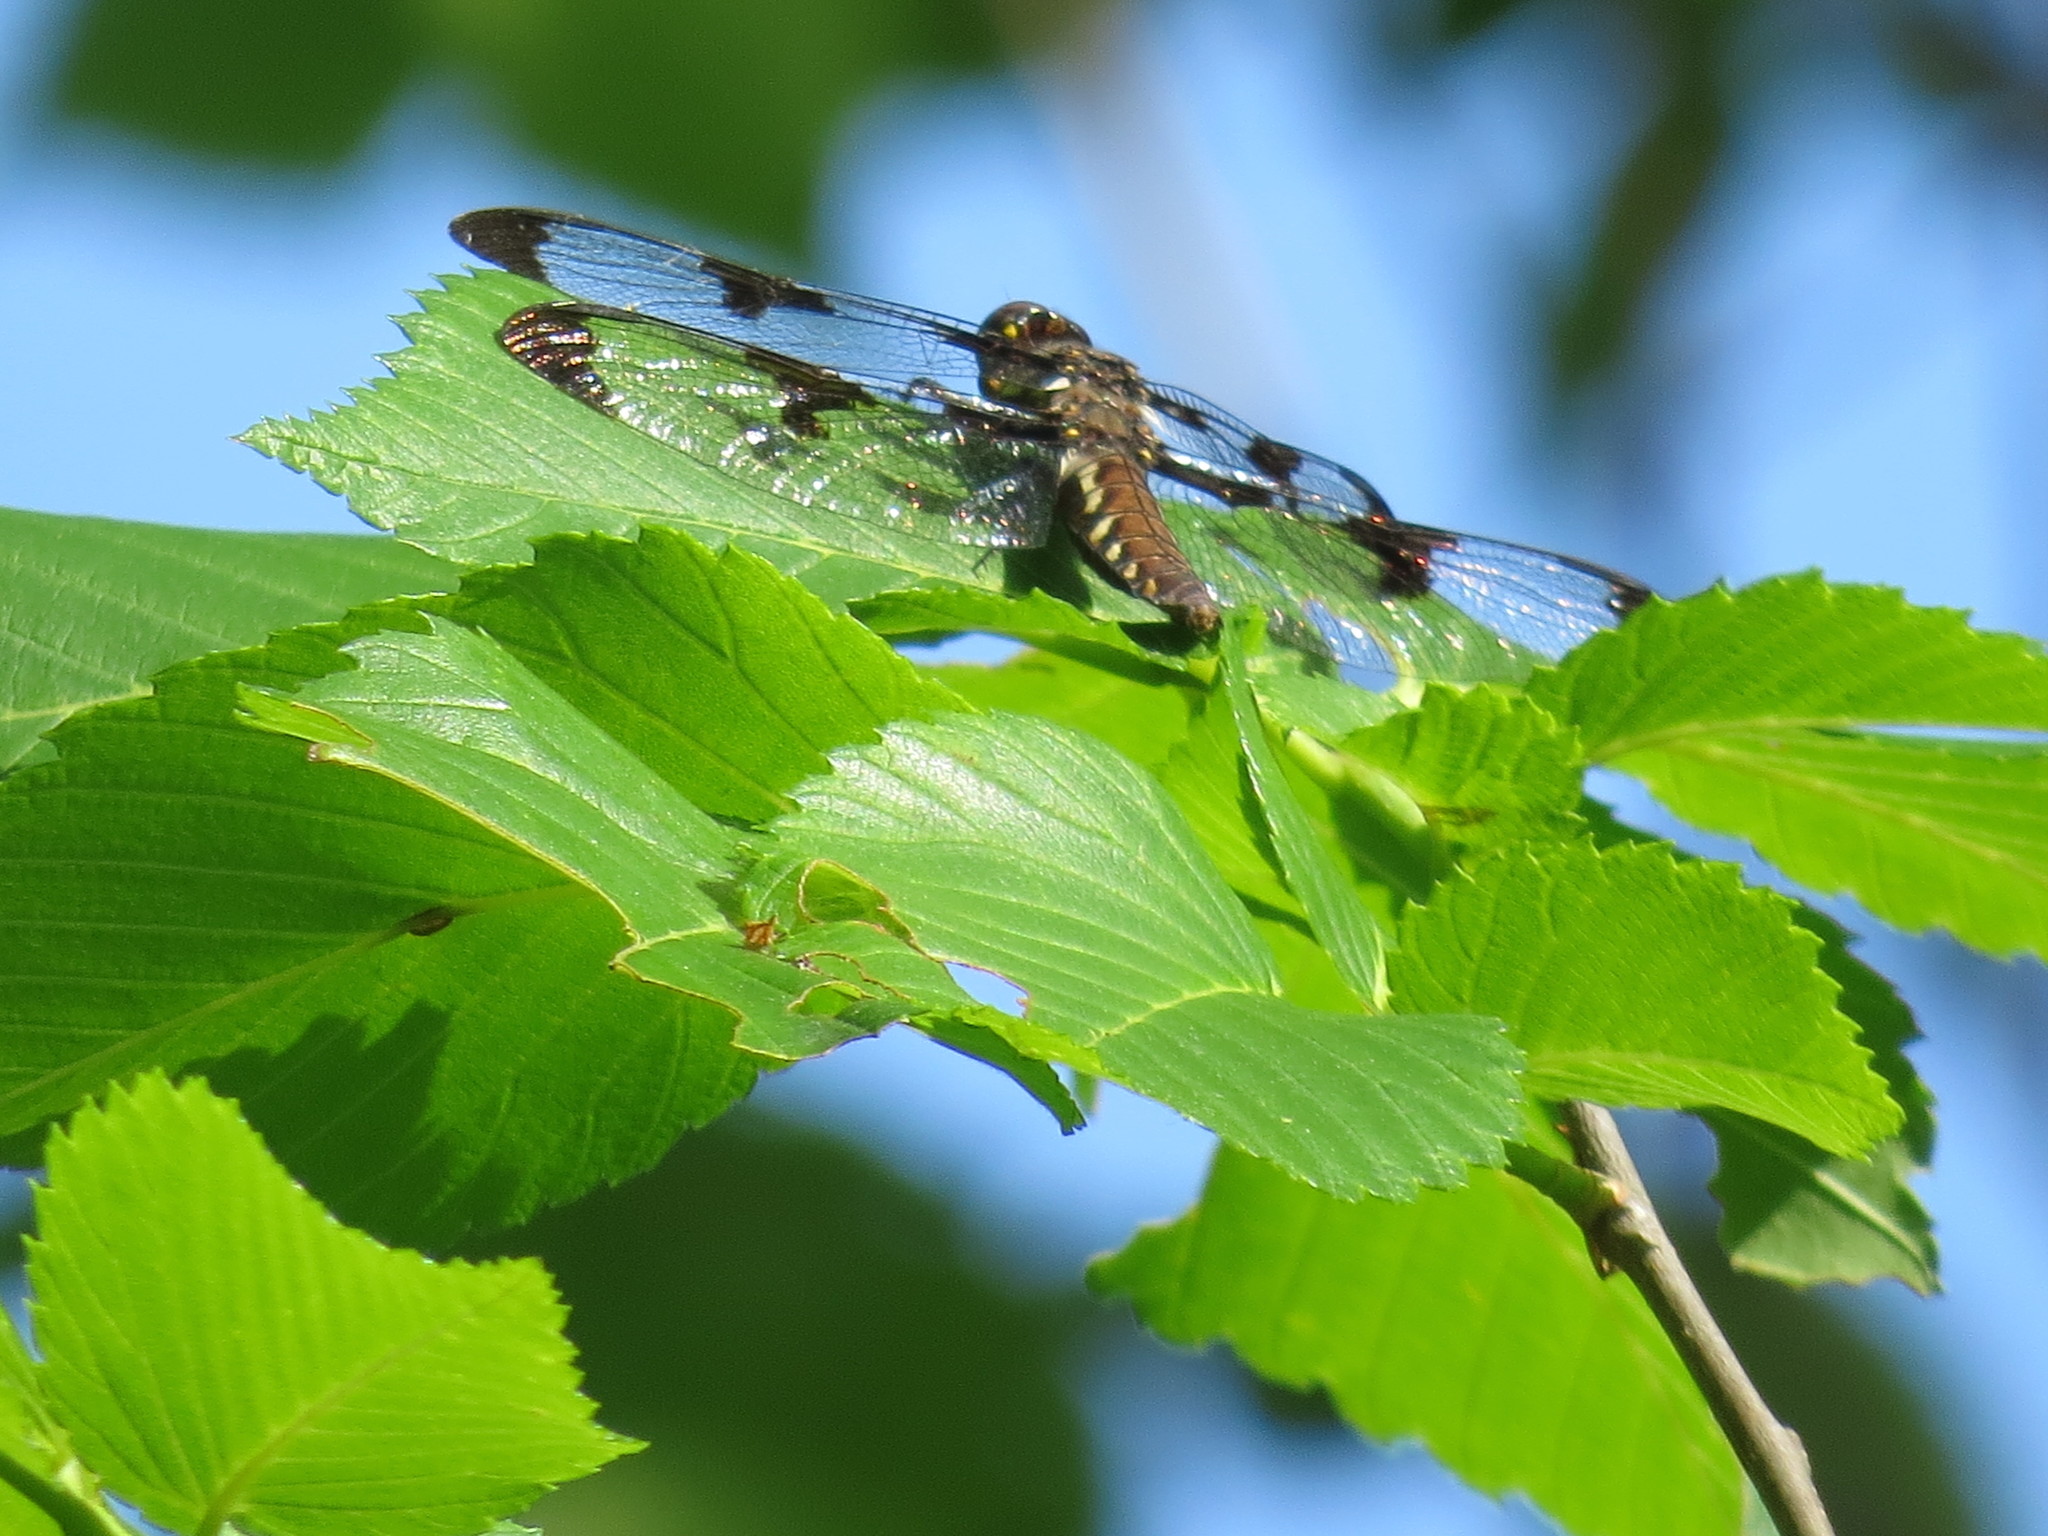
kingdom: Animalia
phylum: Arthropoda
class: Insecta
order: Odonata
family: Libellulidae
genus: Plathemis
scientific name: Plathemis lydia
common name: Common whitetail
